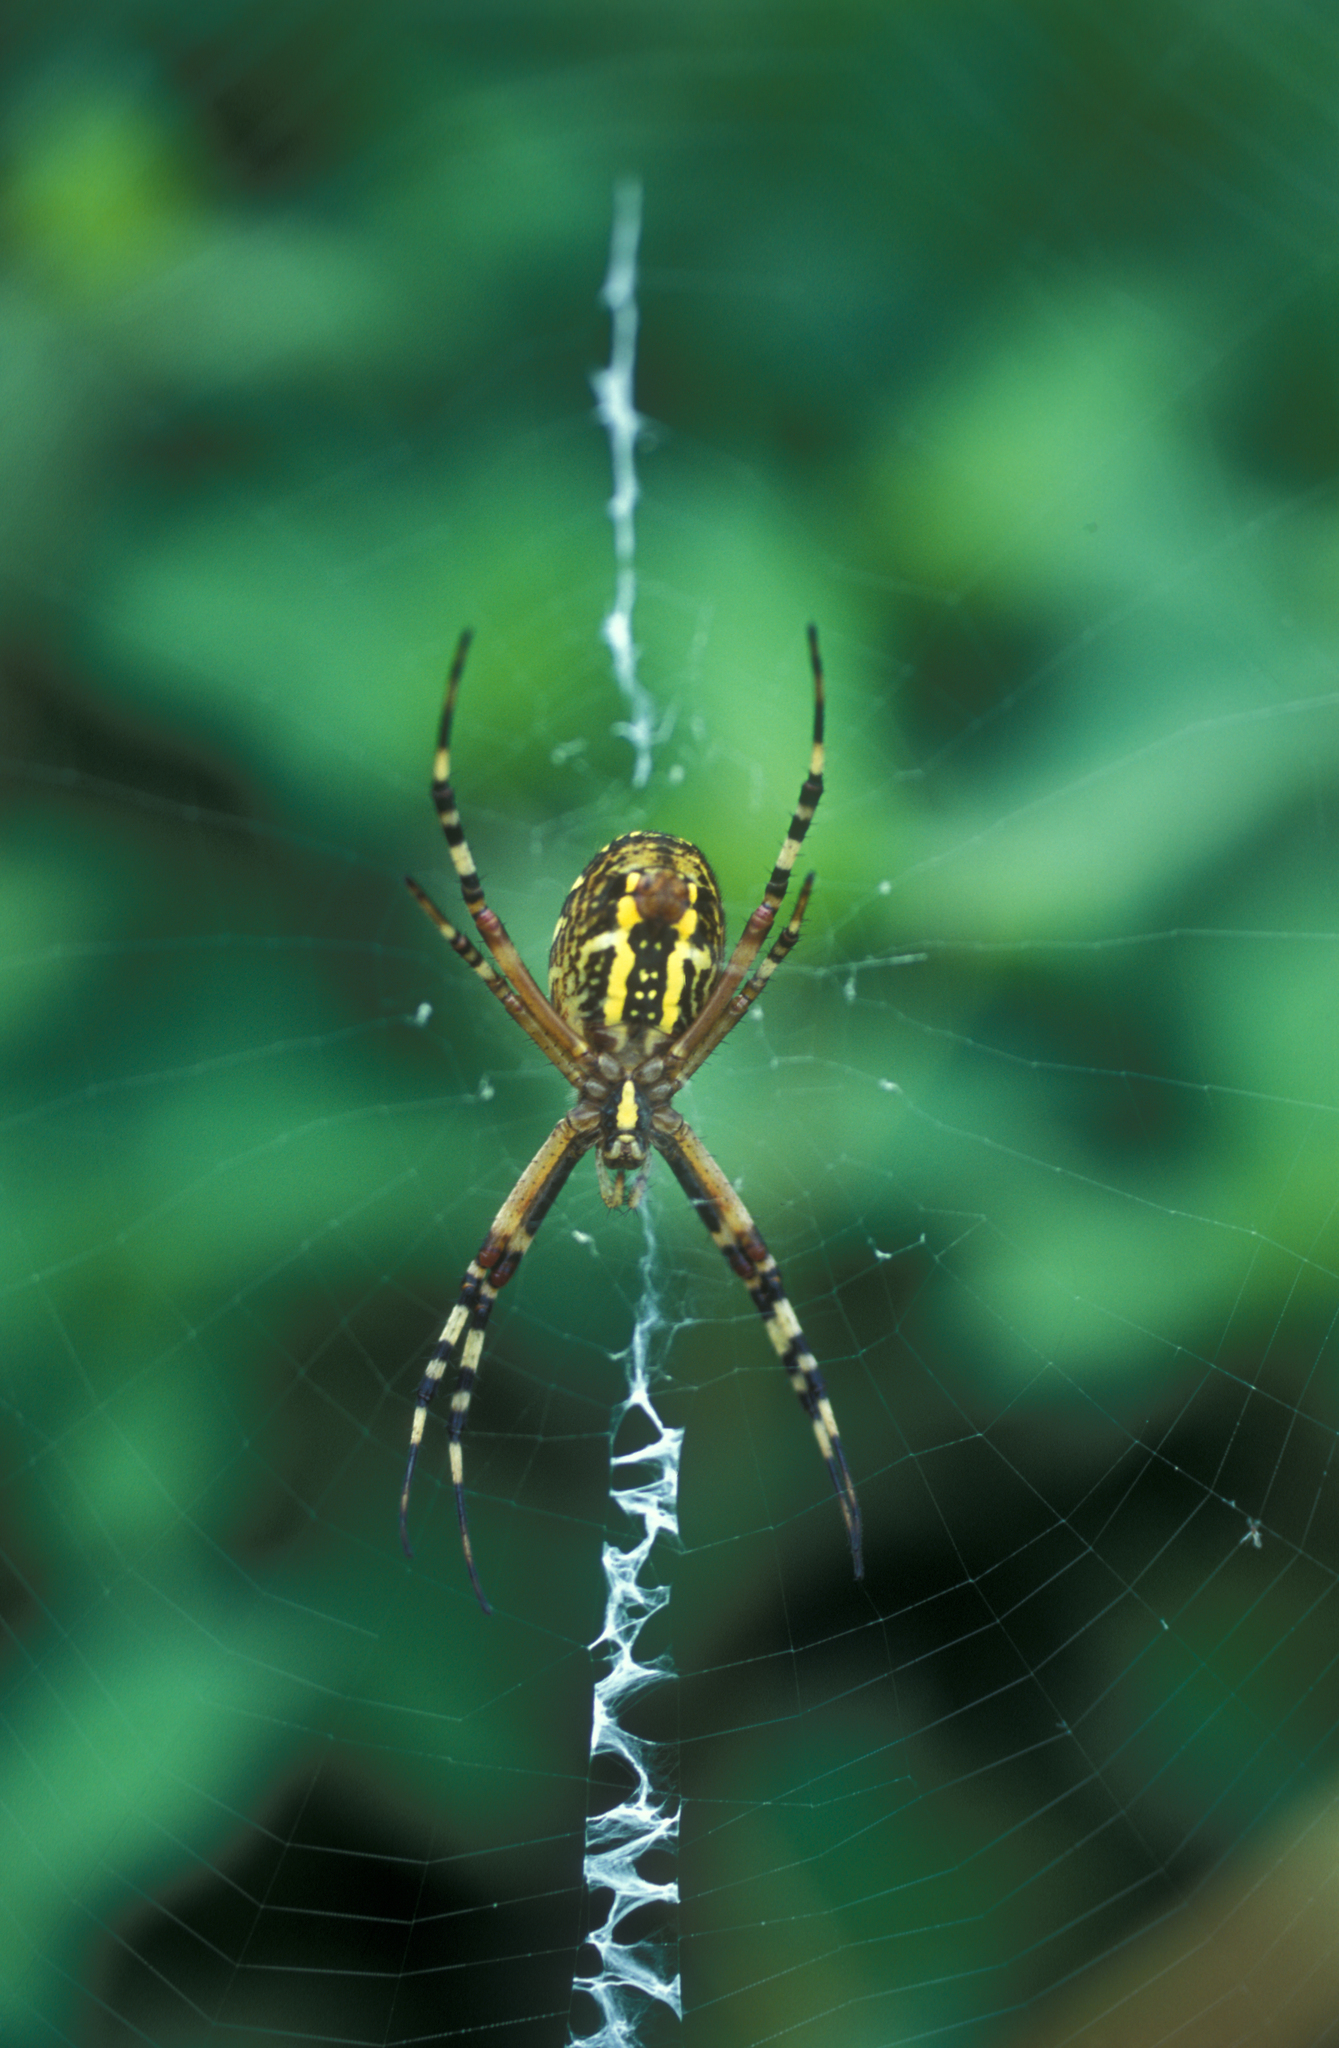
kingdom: Animalia
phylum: Arthropoda
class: Arachnida
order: Araneae
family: Araneidae
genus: Argiope
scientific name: Argiope bruennichi
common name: Wasp spider
